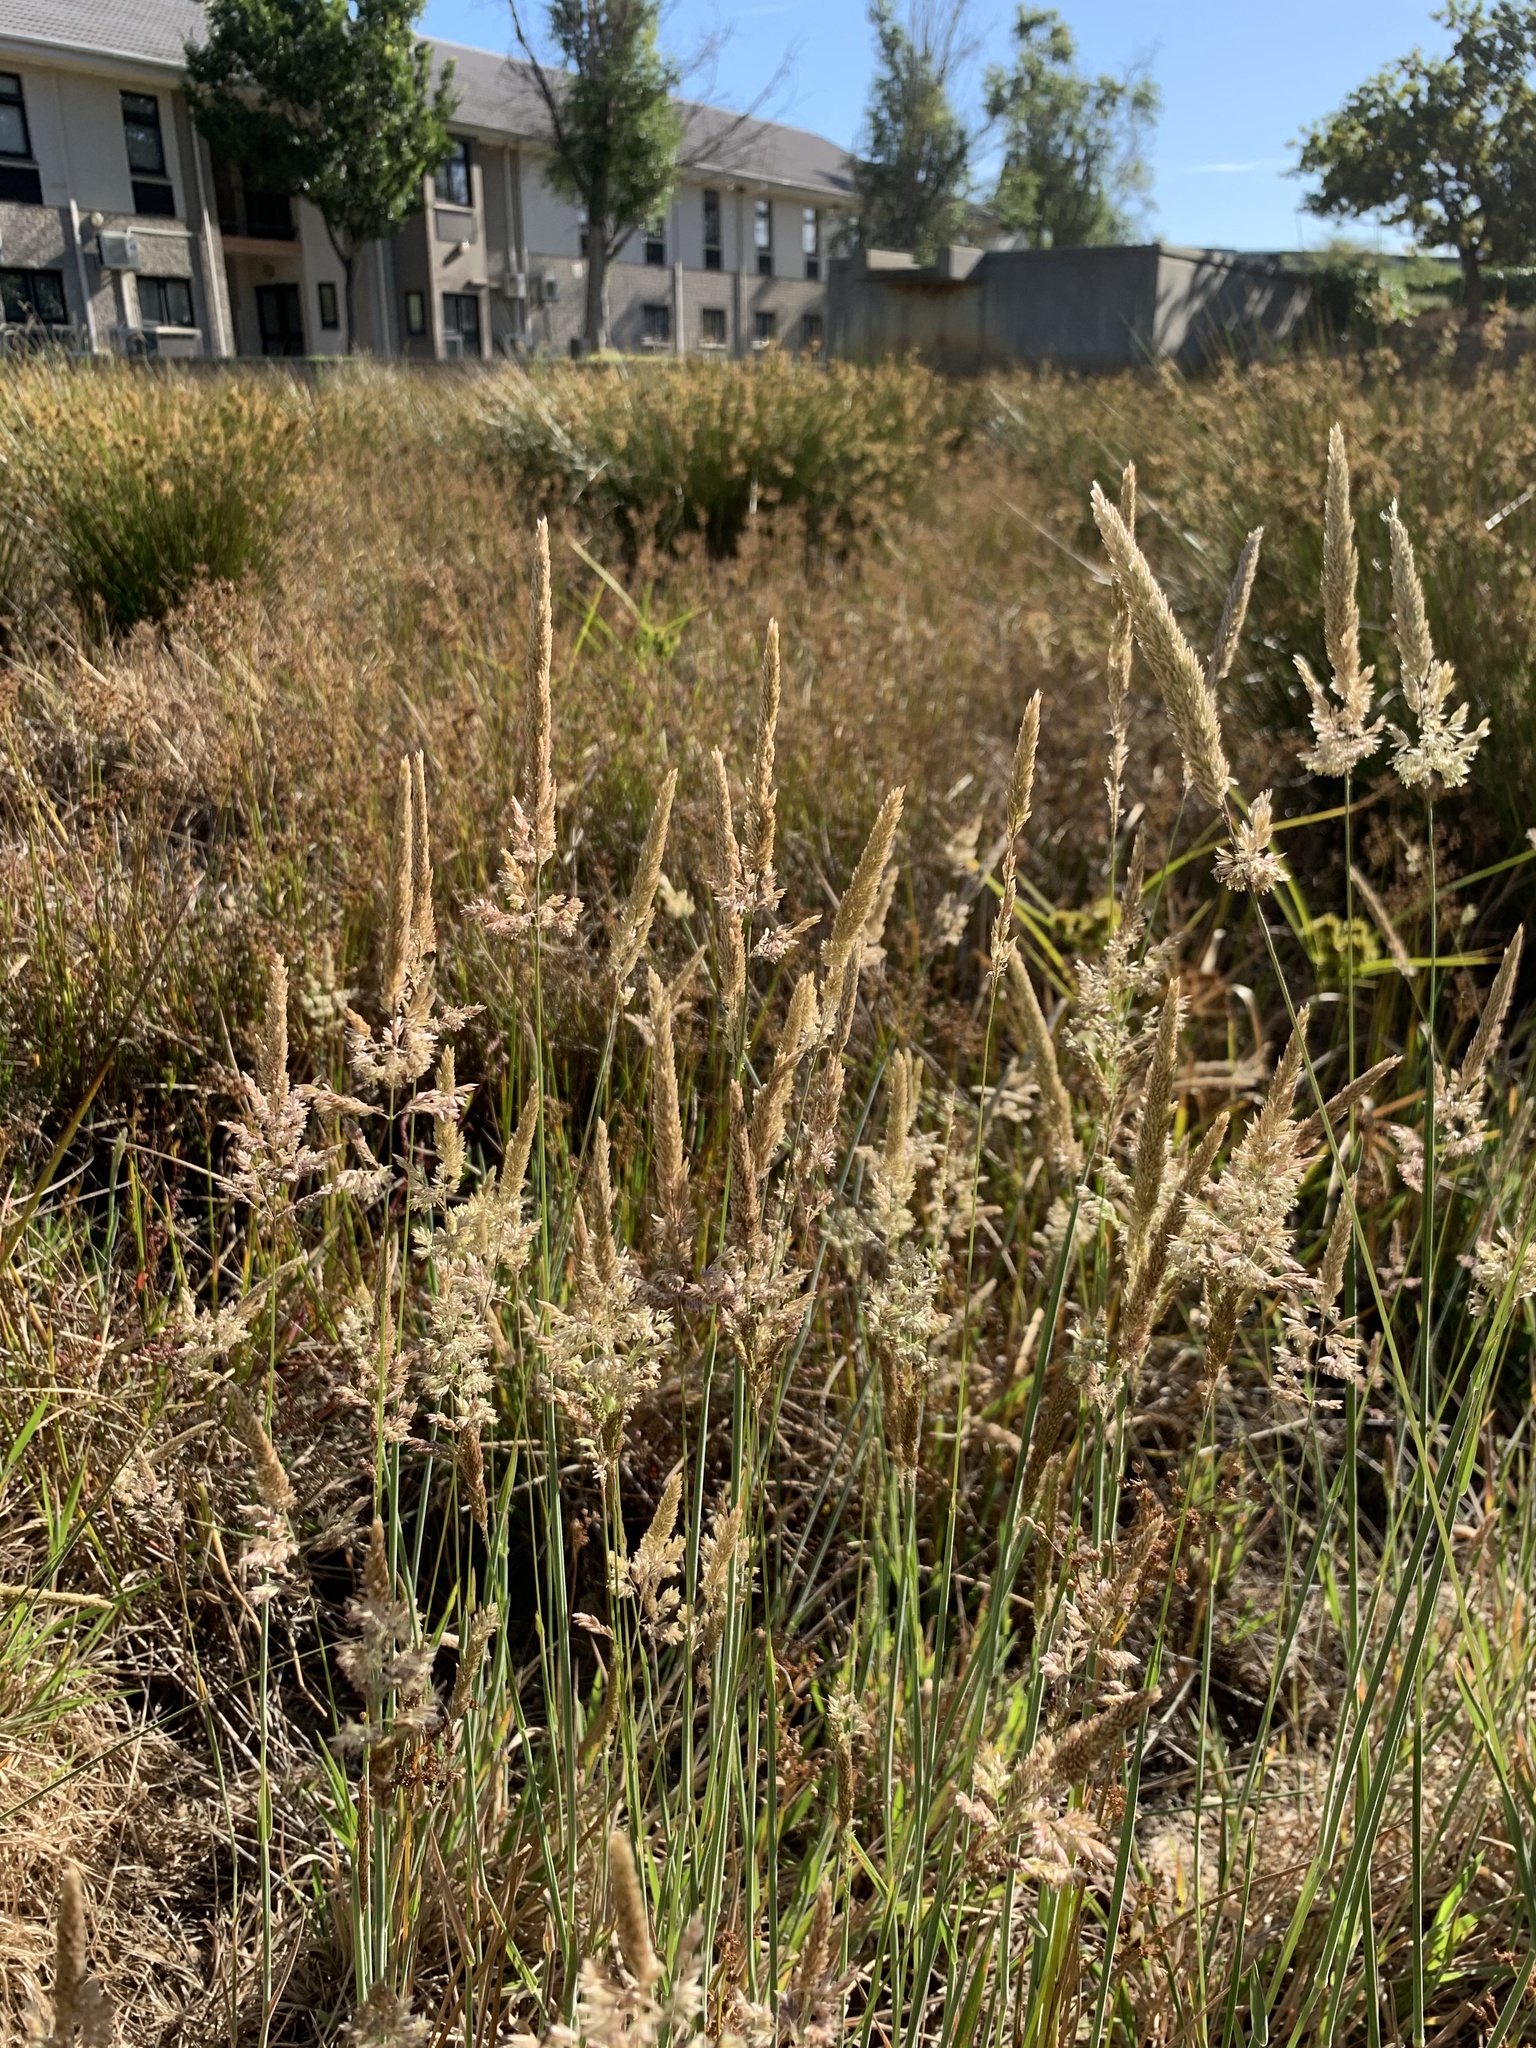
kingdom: Plantae
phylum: Tracheophyta
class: Liliopsida
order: Poales
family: Poaceae
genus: Holcus
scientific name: Holcus lanatus
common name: Yorkshire-fog
